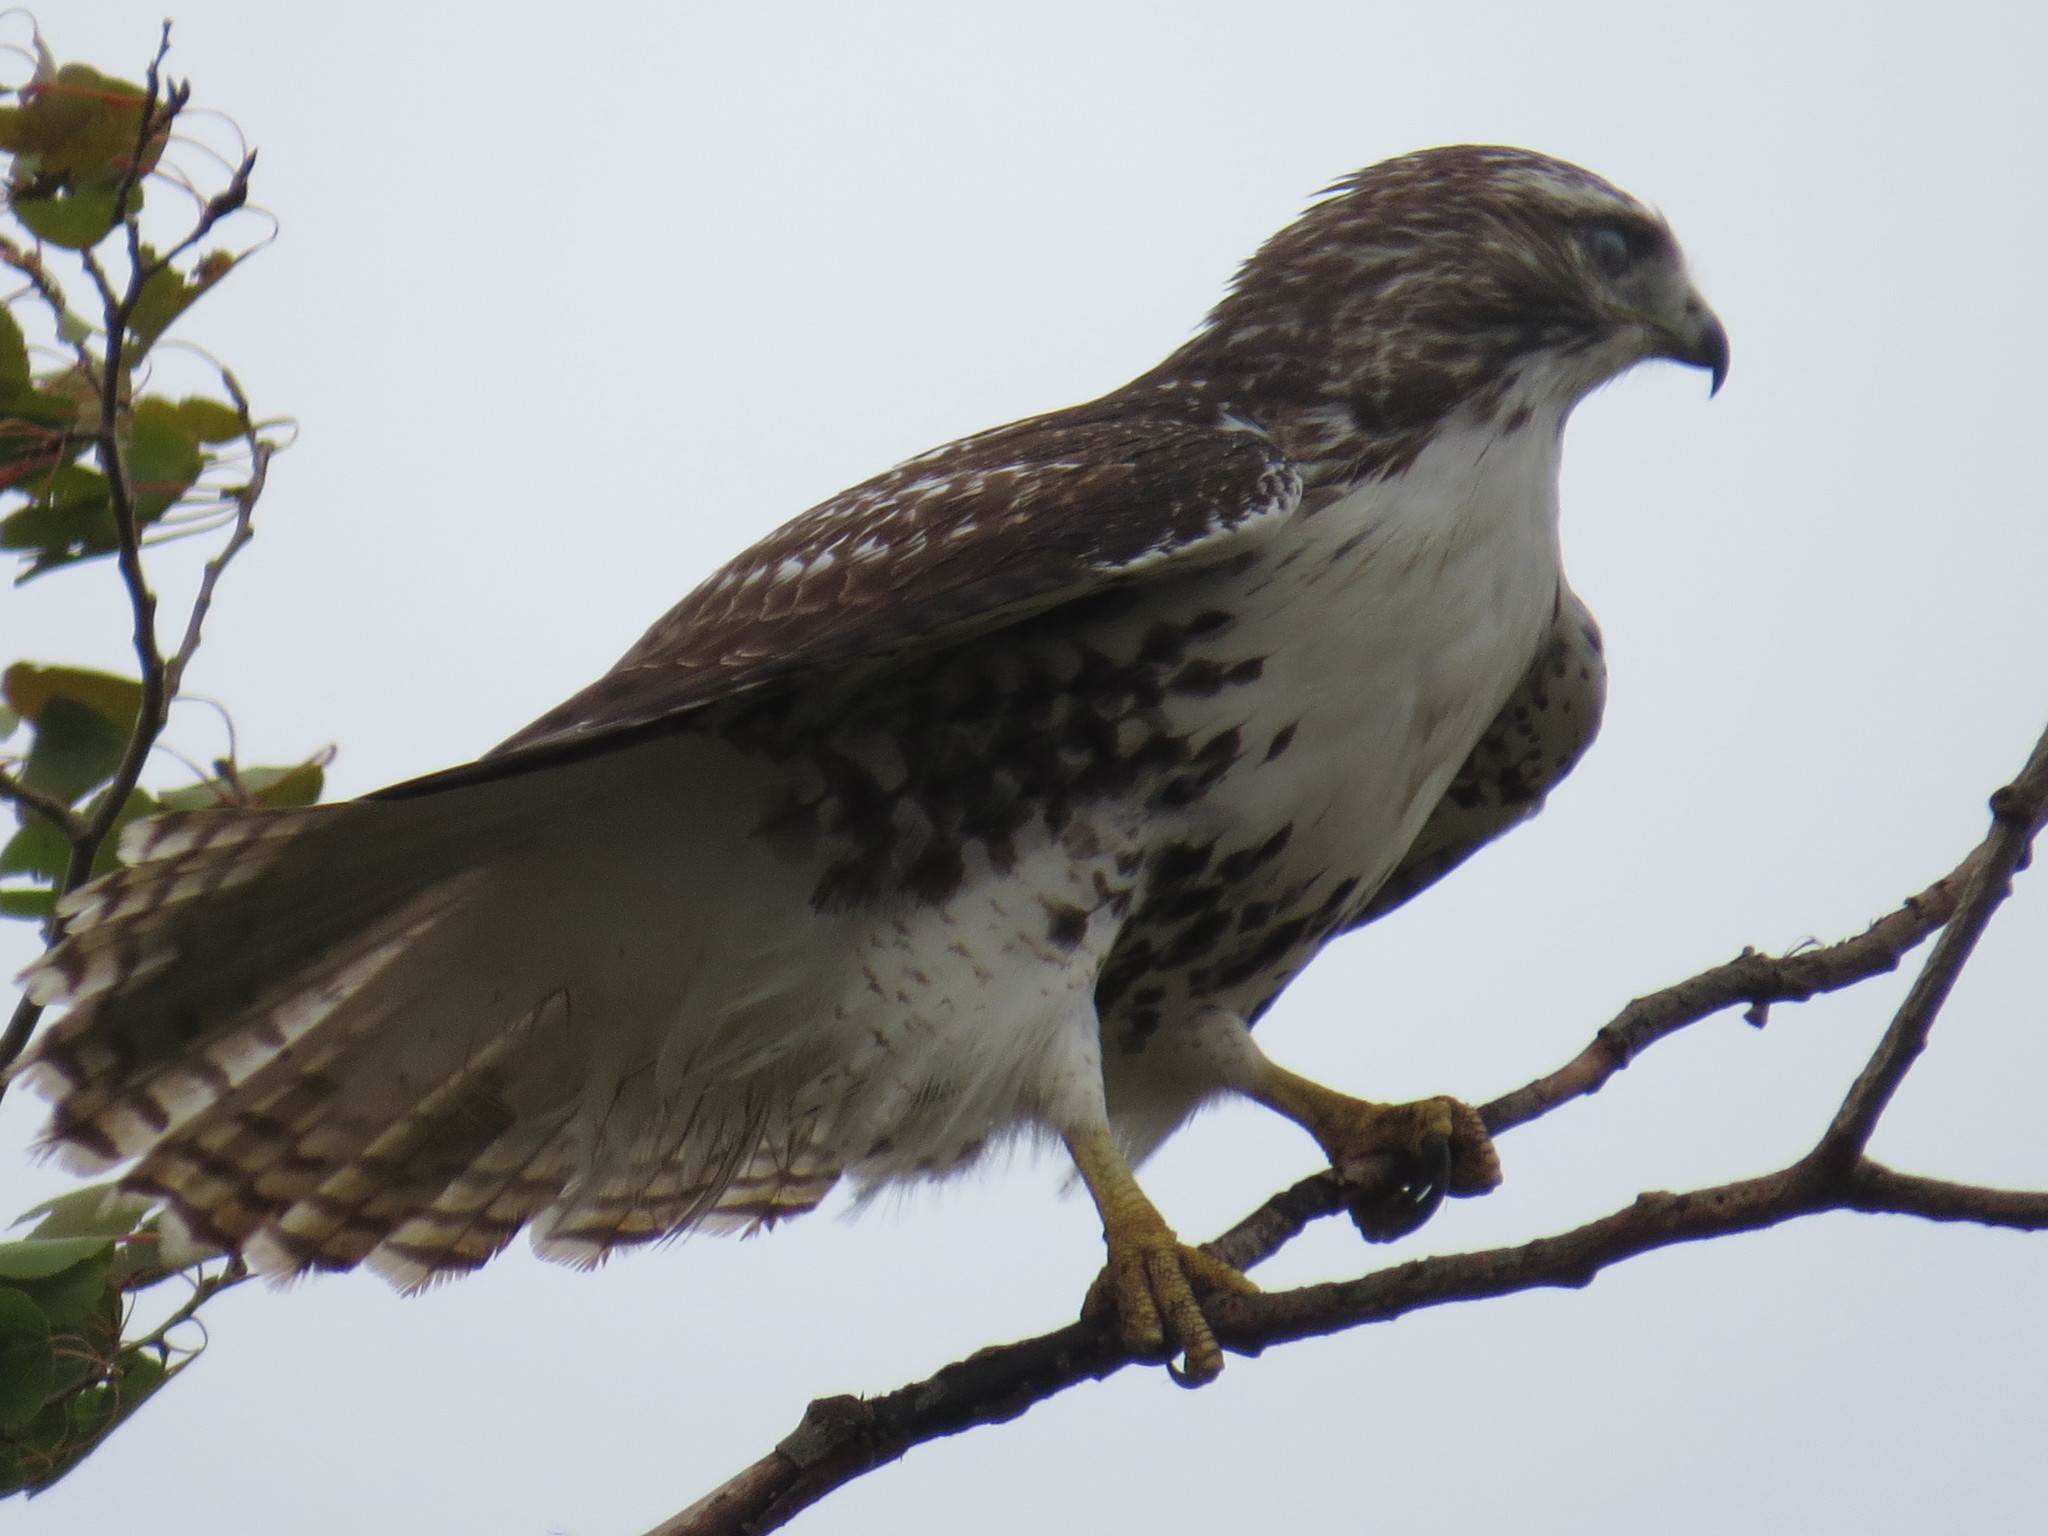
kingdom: Animalia
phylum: Chordata
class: Aves
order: Accipitriformes
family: Accipitridae
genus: Buteo
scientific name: Buteo jamaicensis
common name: Red-tailed hawk
